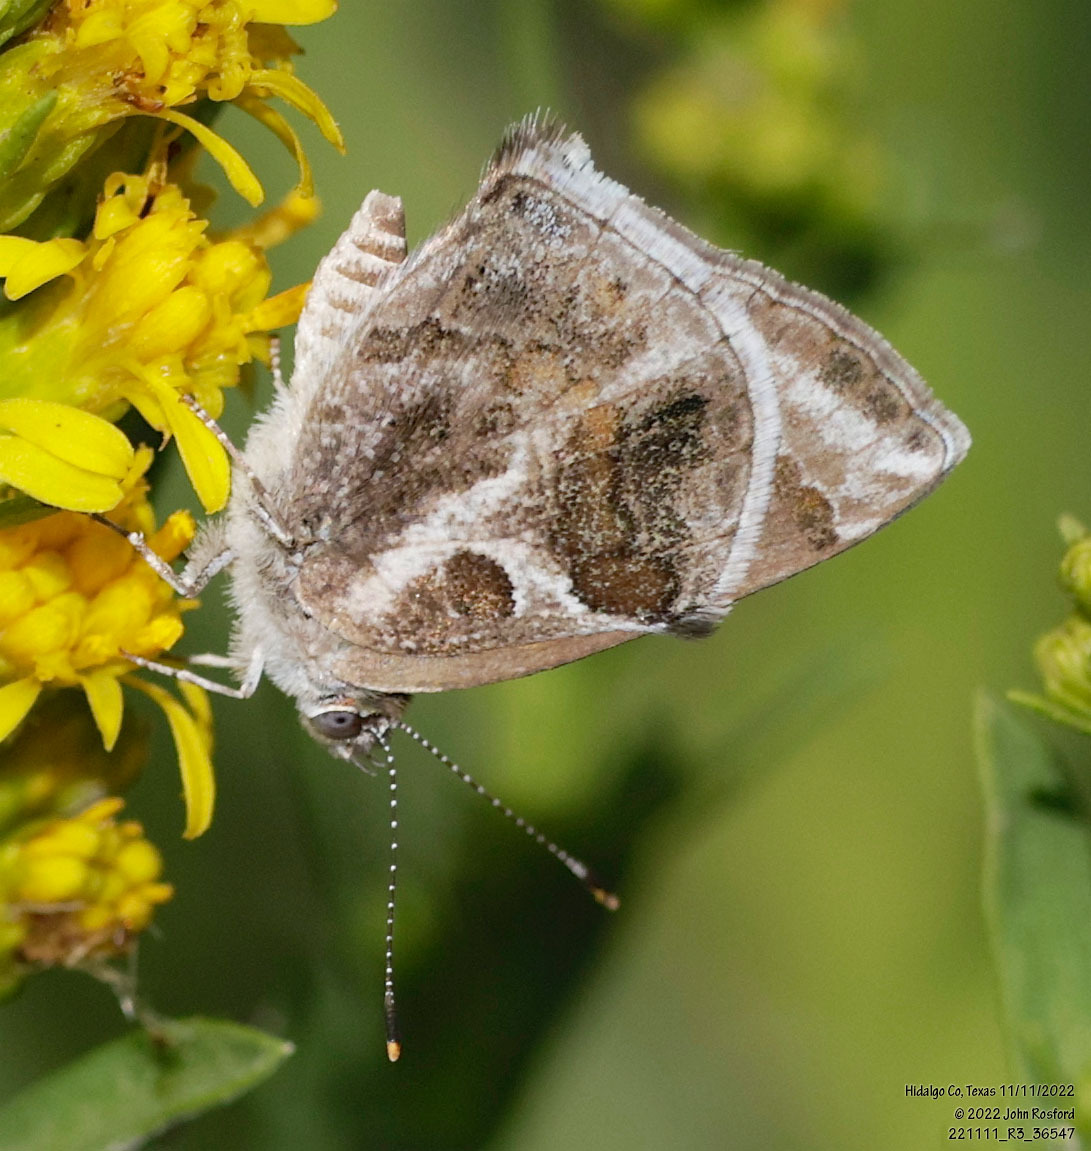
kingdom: Animalia
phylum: Arthropoda
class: Insecta
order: Lepidoptera
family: Lycaenidae
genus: Strymon
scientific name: Strymon bazochii
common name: Lantana scrub-hairstreak
